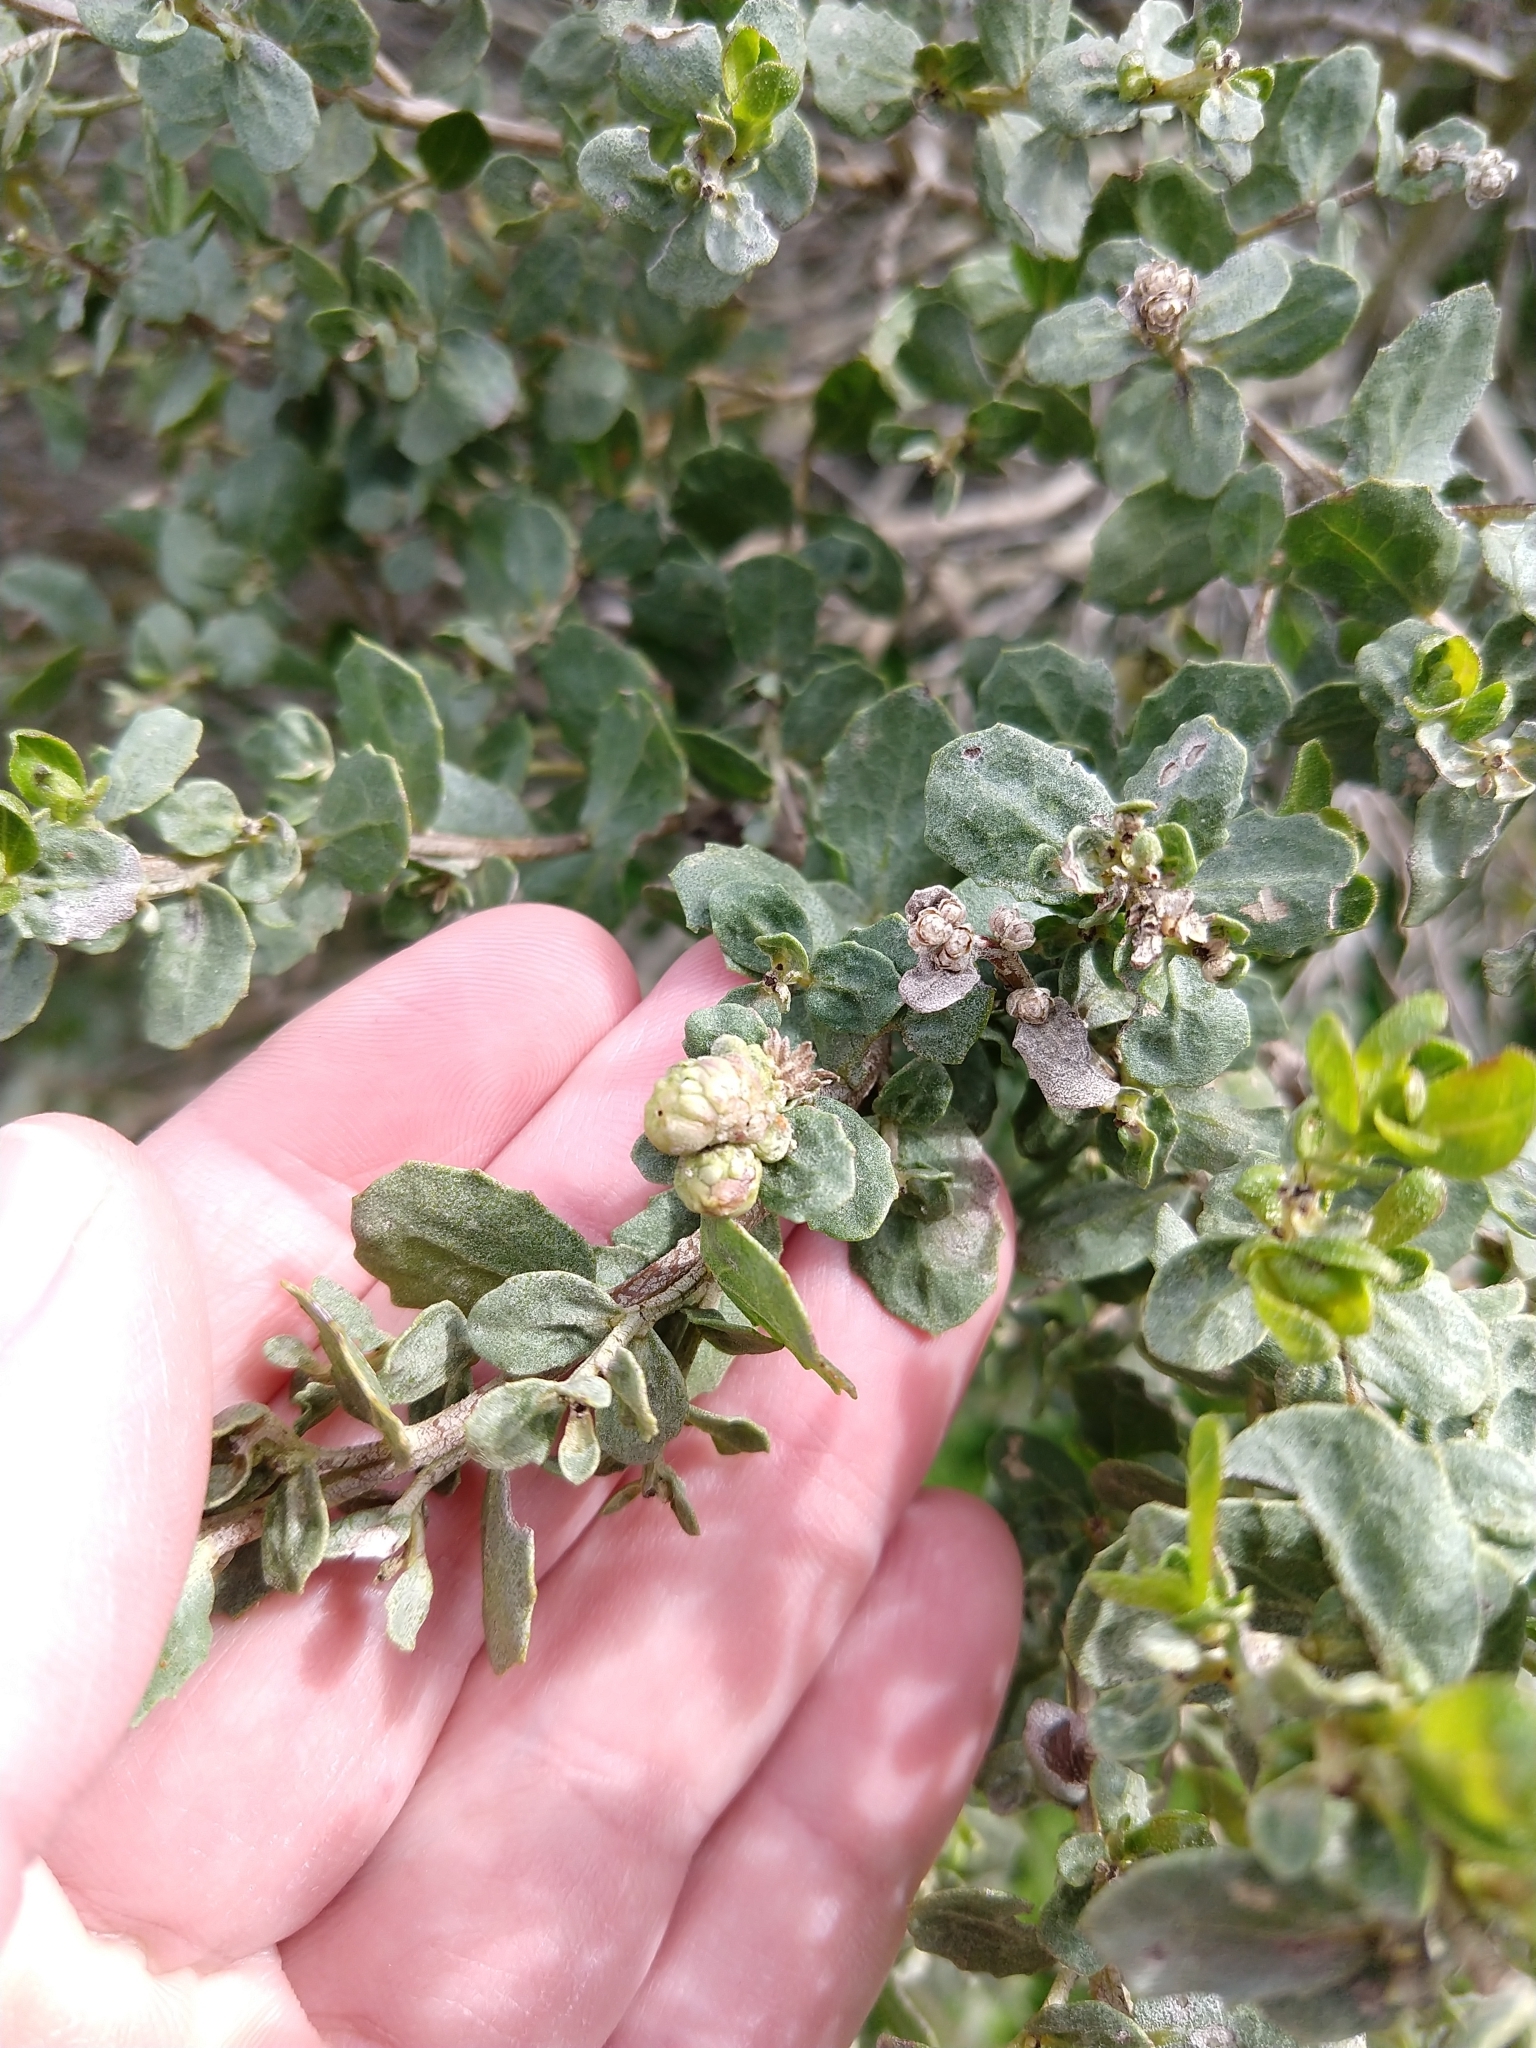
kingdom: Animalia
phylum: Arthropoda
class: Insecta
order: Diptera
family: Cecidomyiidae
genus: Rhopalomyia
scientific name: Rhopalomyia californica
